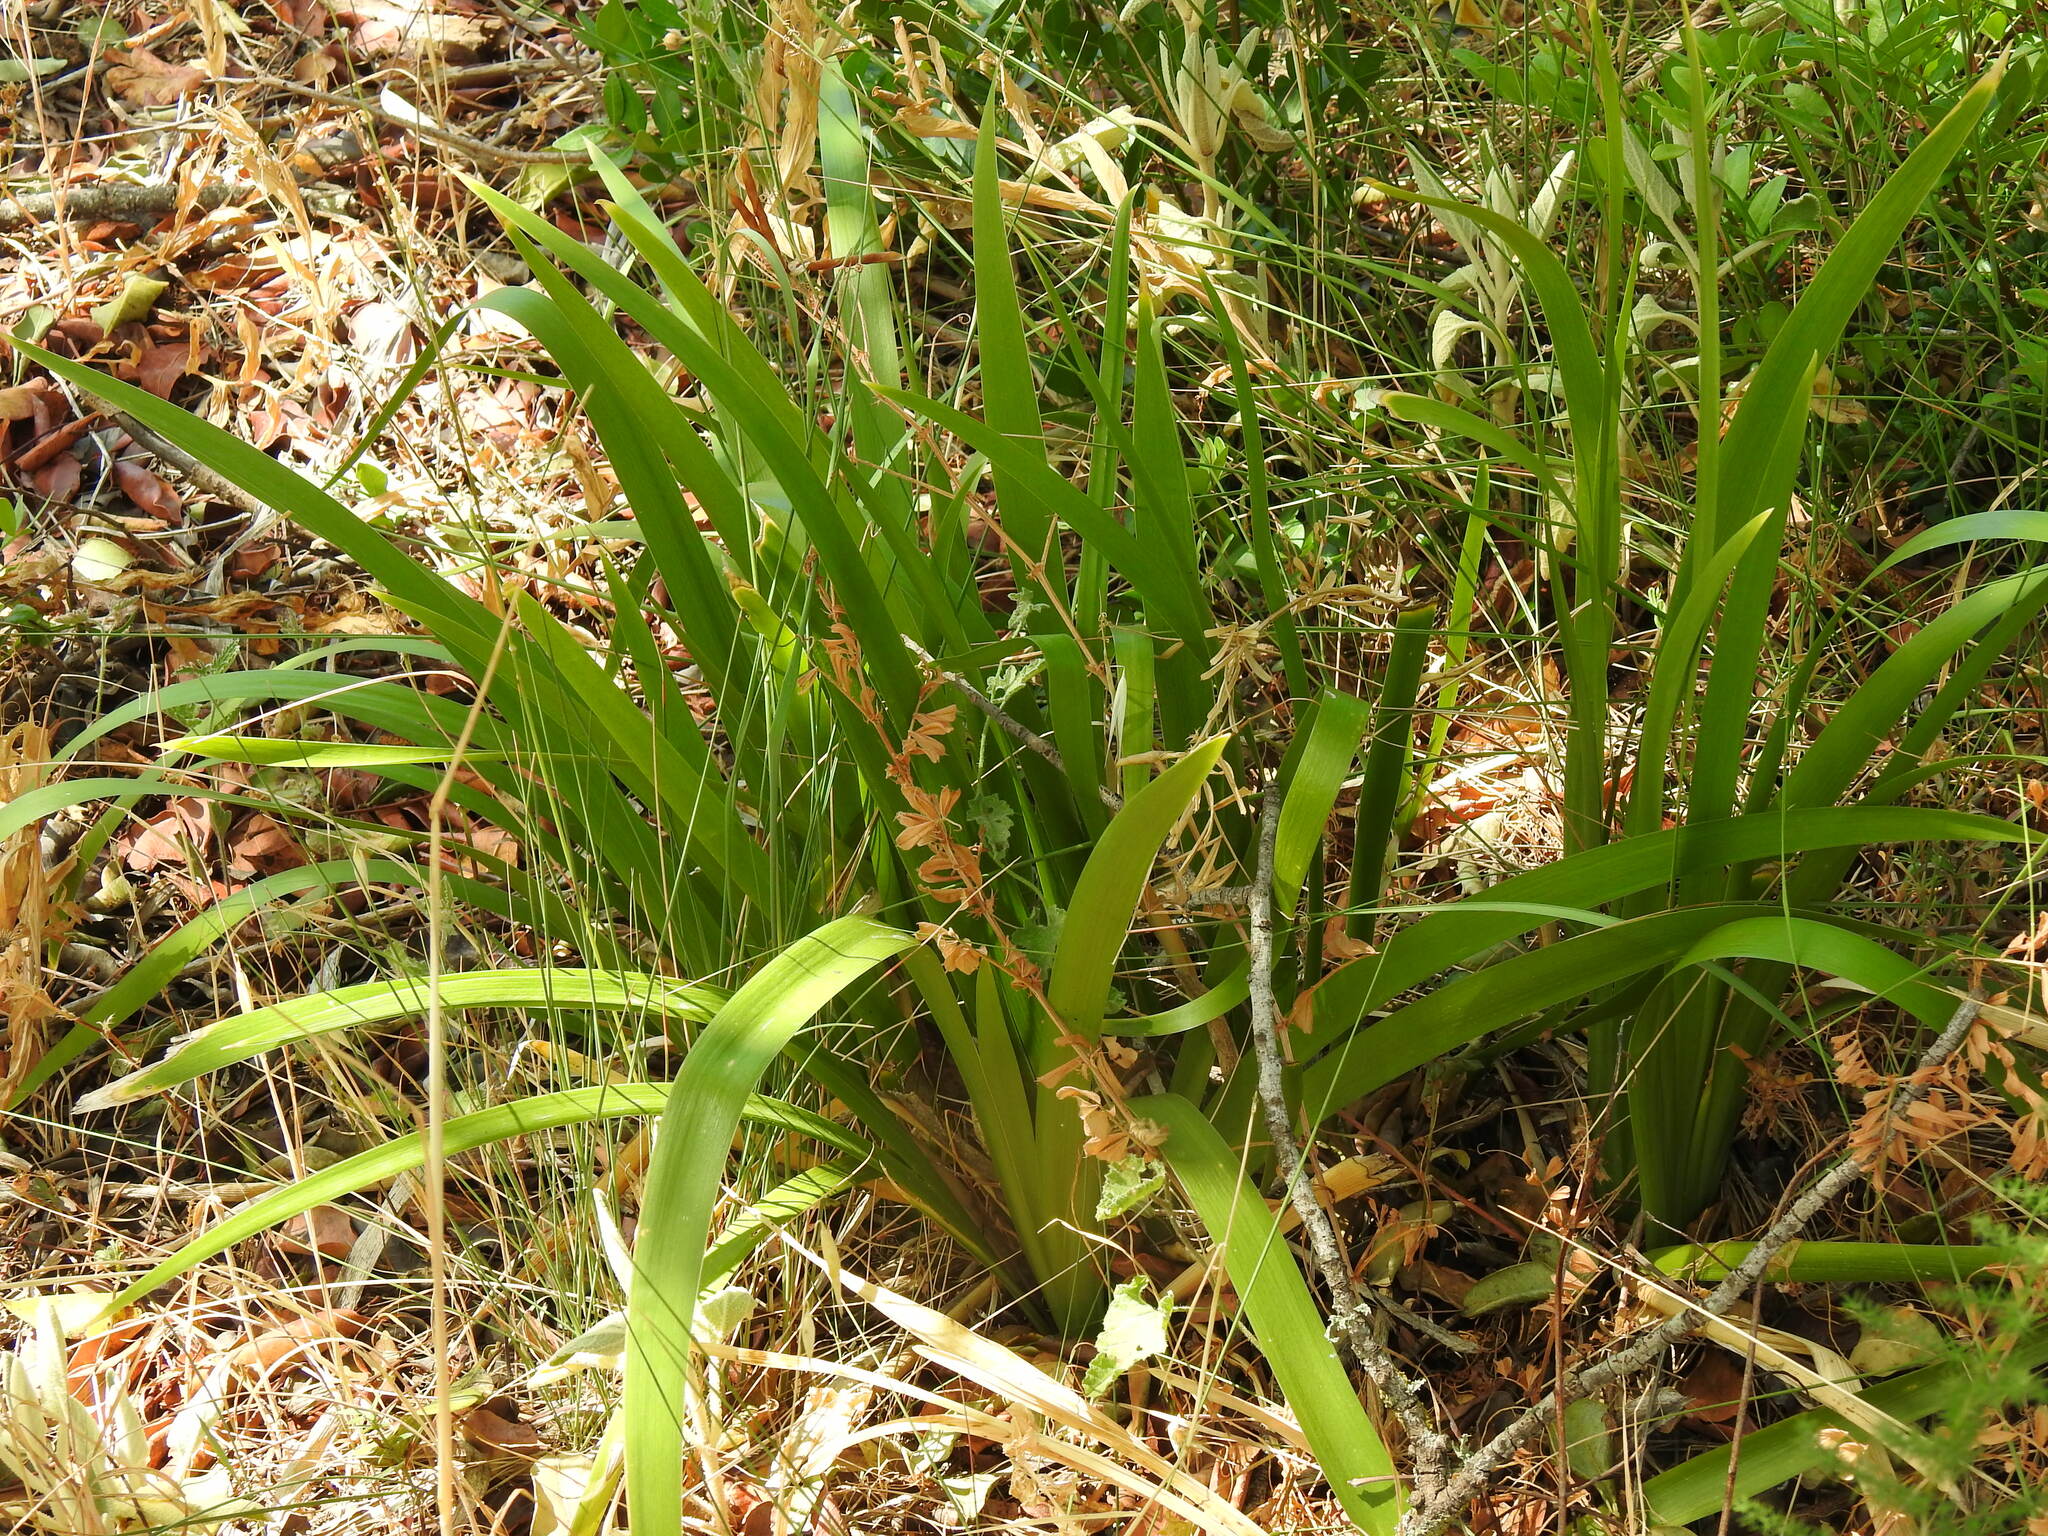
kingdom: Plantae
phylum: Tracheophyta
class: Liliopsida
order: Asparagales
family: Iridaceae
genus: Iris
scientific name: Iris foetidissima
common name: Stinking iris
